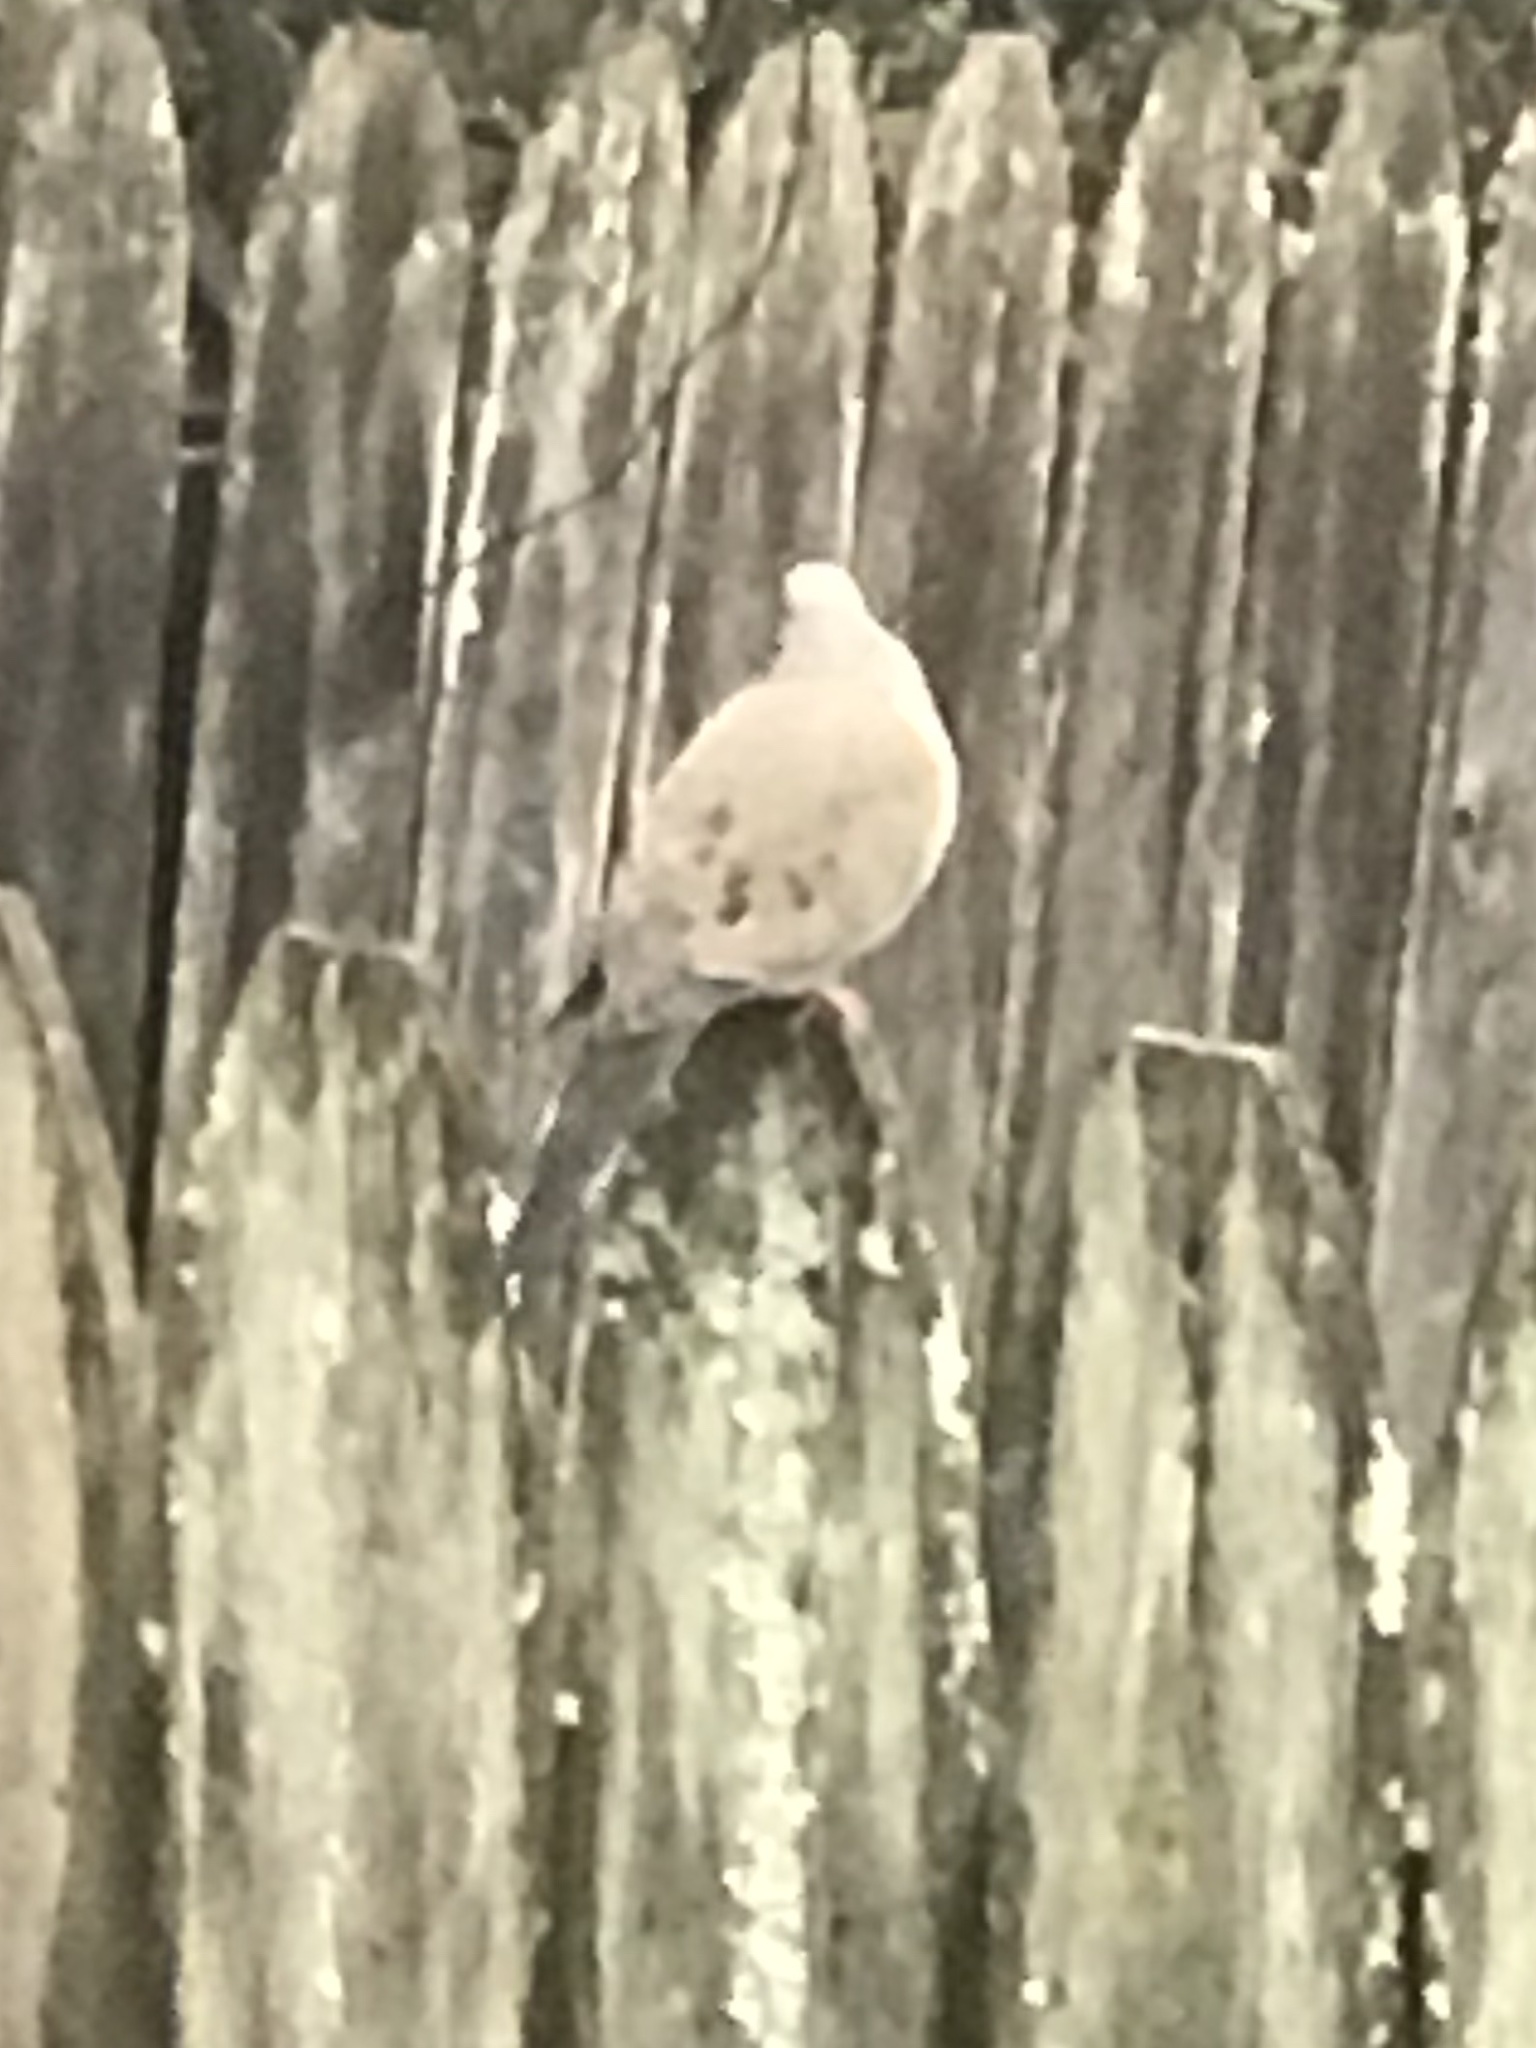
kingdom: Animalia
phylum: Chordata
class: Aves
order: Columbiformes
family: Columbidae
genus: Zenaida
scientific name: Zenaida macroura
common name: Mourning dove
